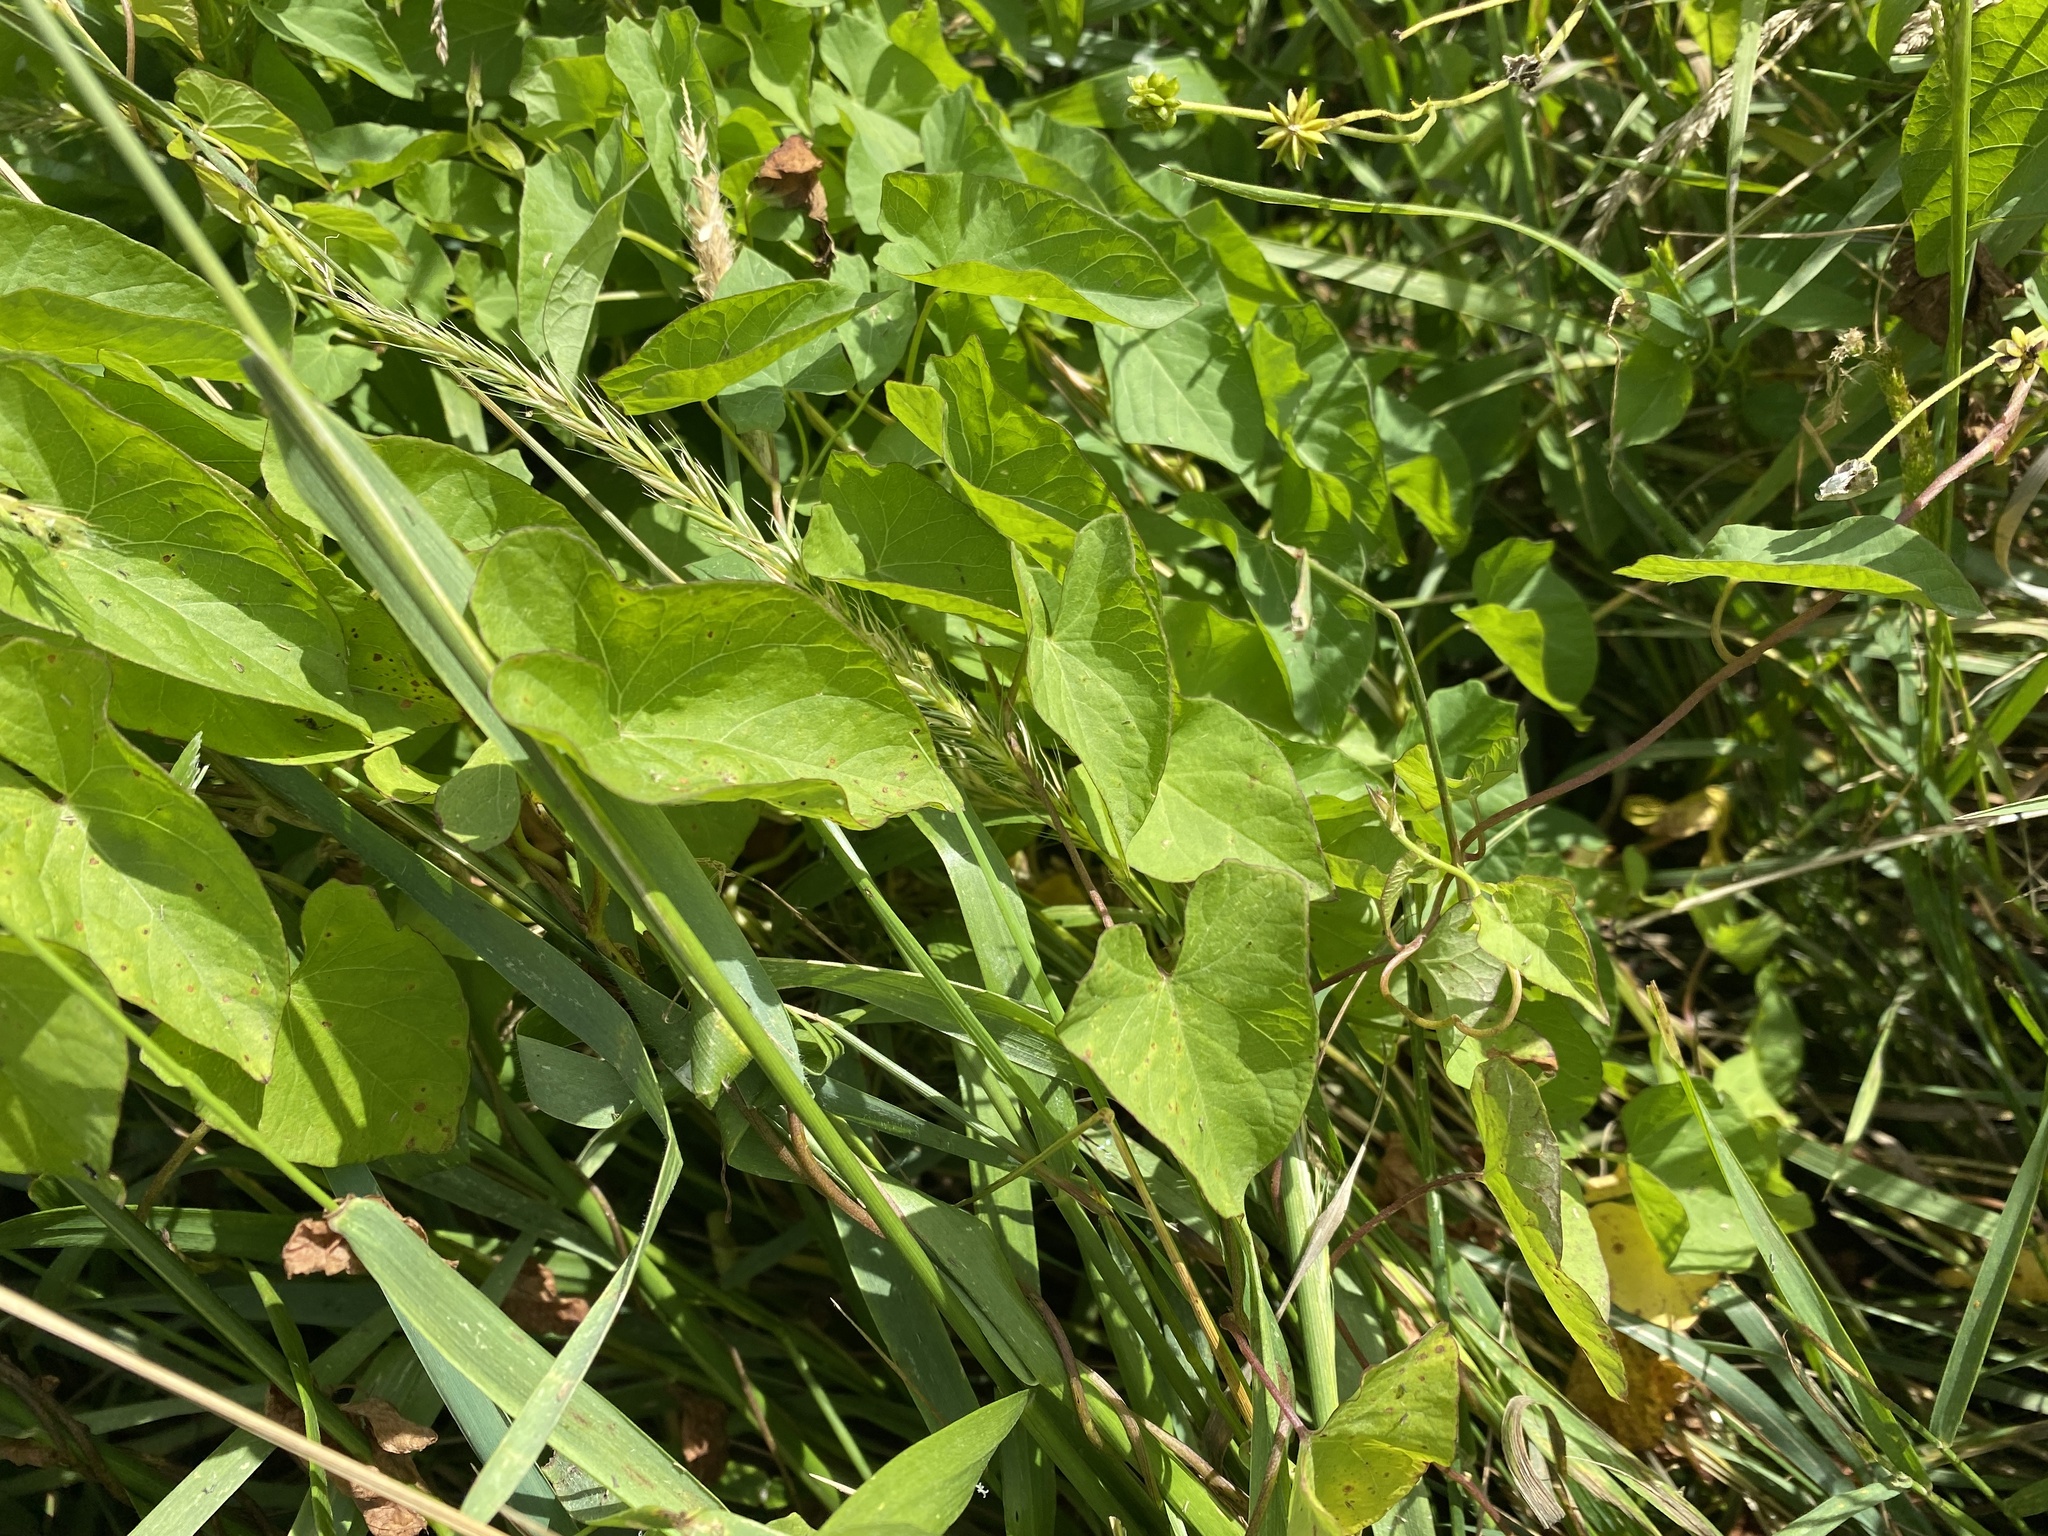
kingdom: Plantae
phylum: Tracheophyta
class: Magnoliopsida
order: Solanales
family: Convolvulaceae
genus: Calystegia
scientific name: Calystegia sepium
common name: Hedge bindweed
